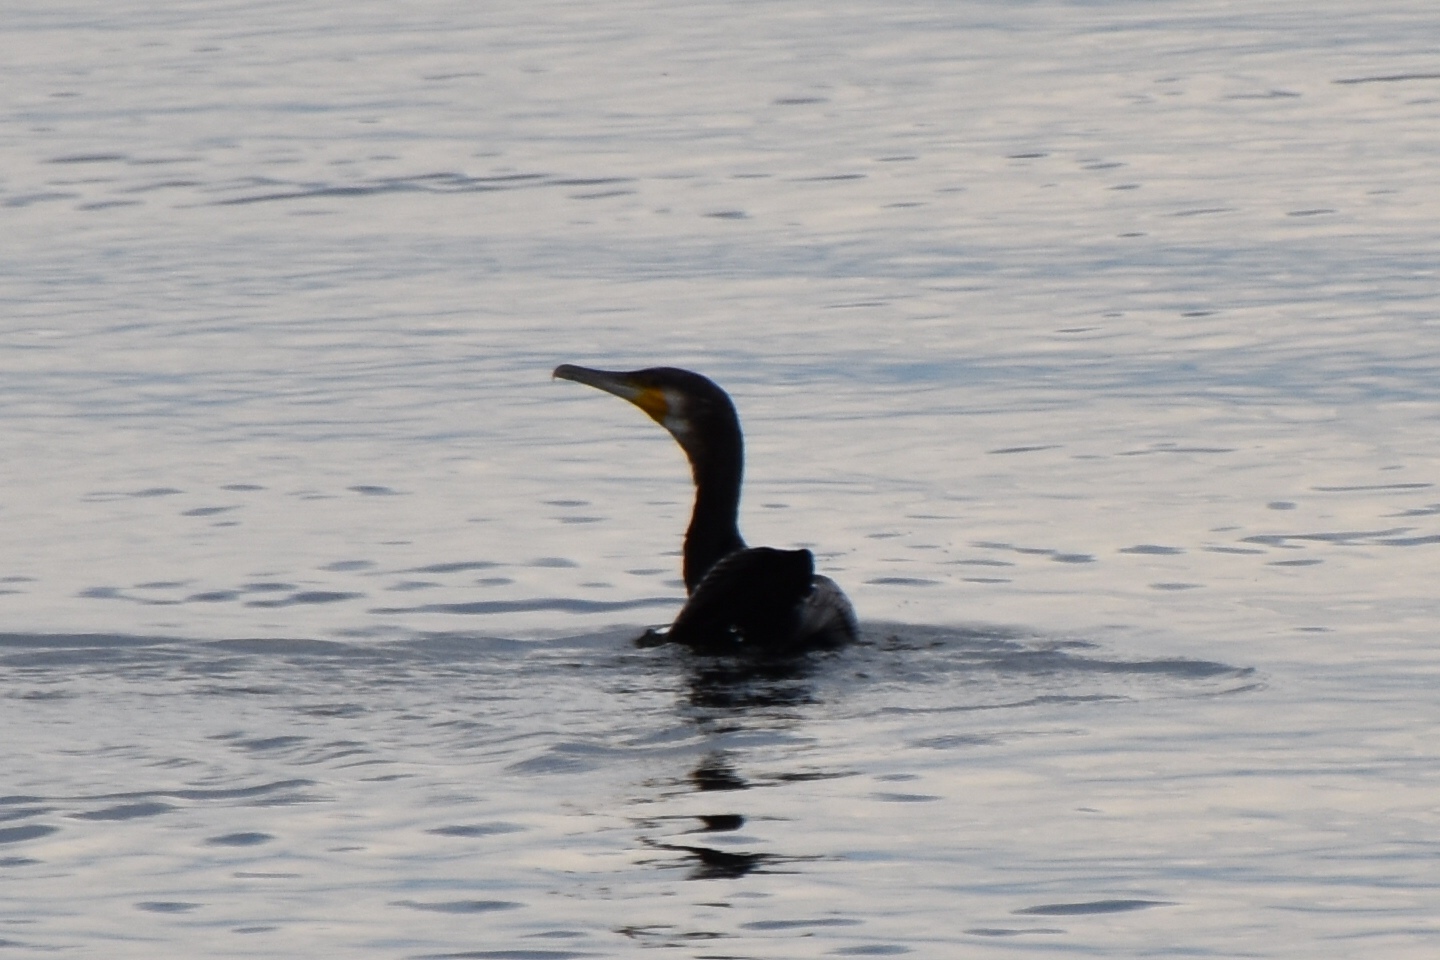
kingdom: Animalia
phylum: Chordata
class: Aves
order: Suliformes
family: Phalacrocoracidae
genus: Phalacrocorax
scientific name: Phalacrocorax carbo
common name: Great cormorant
